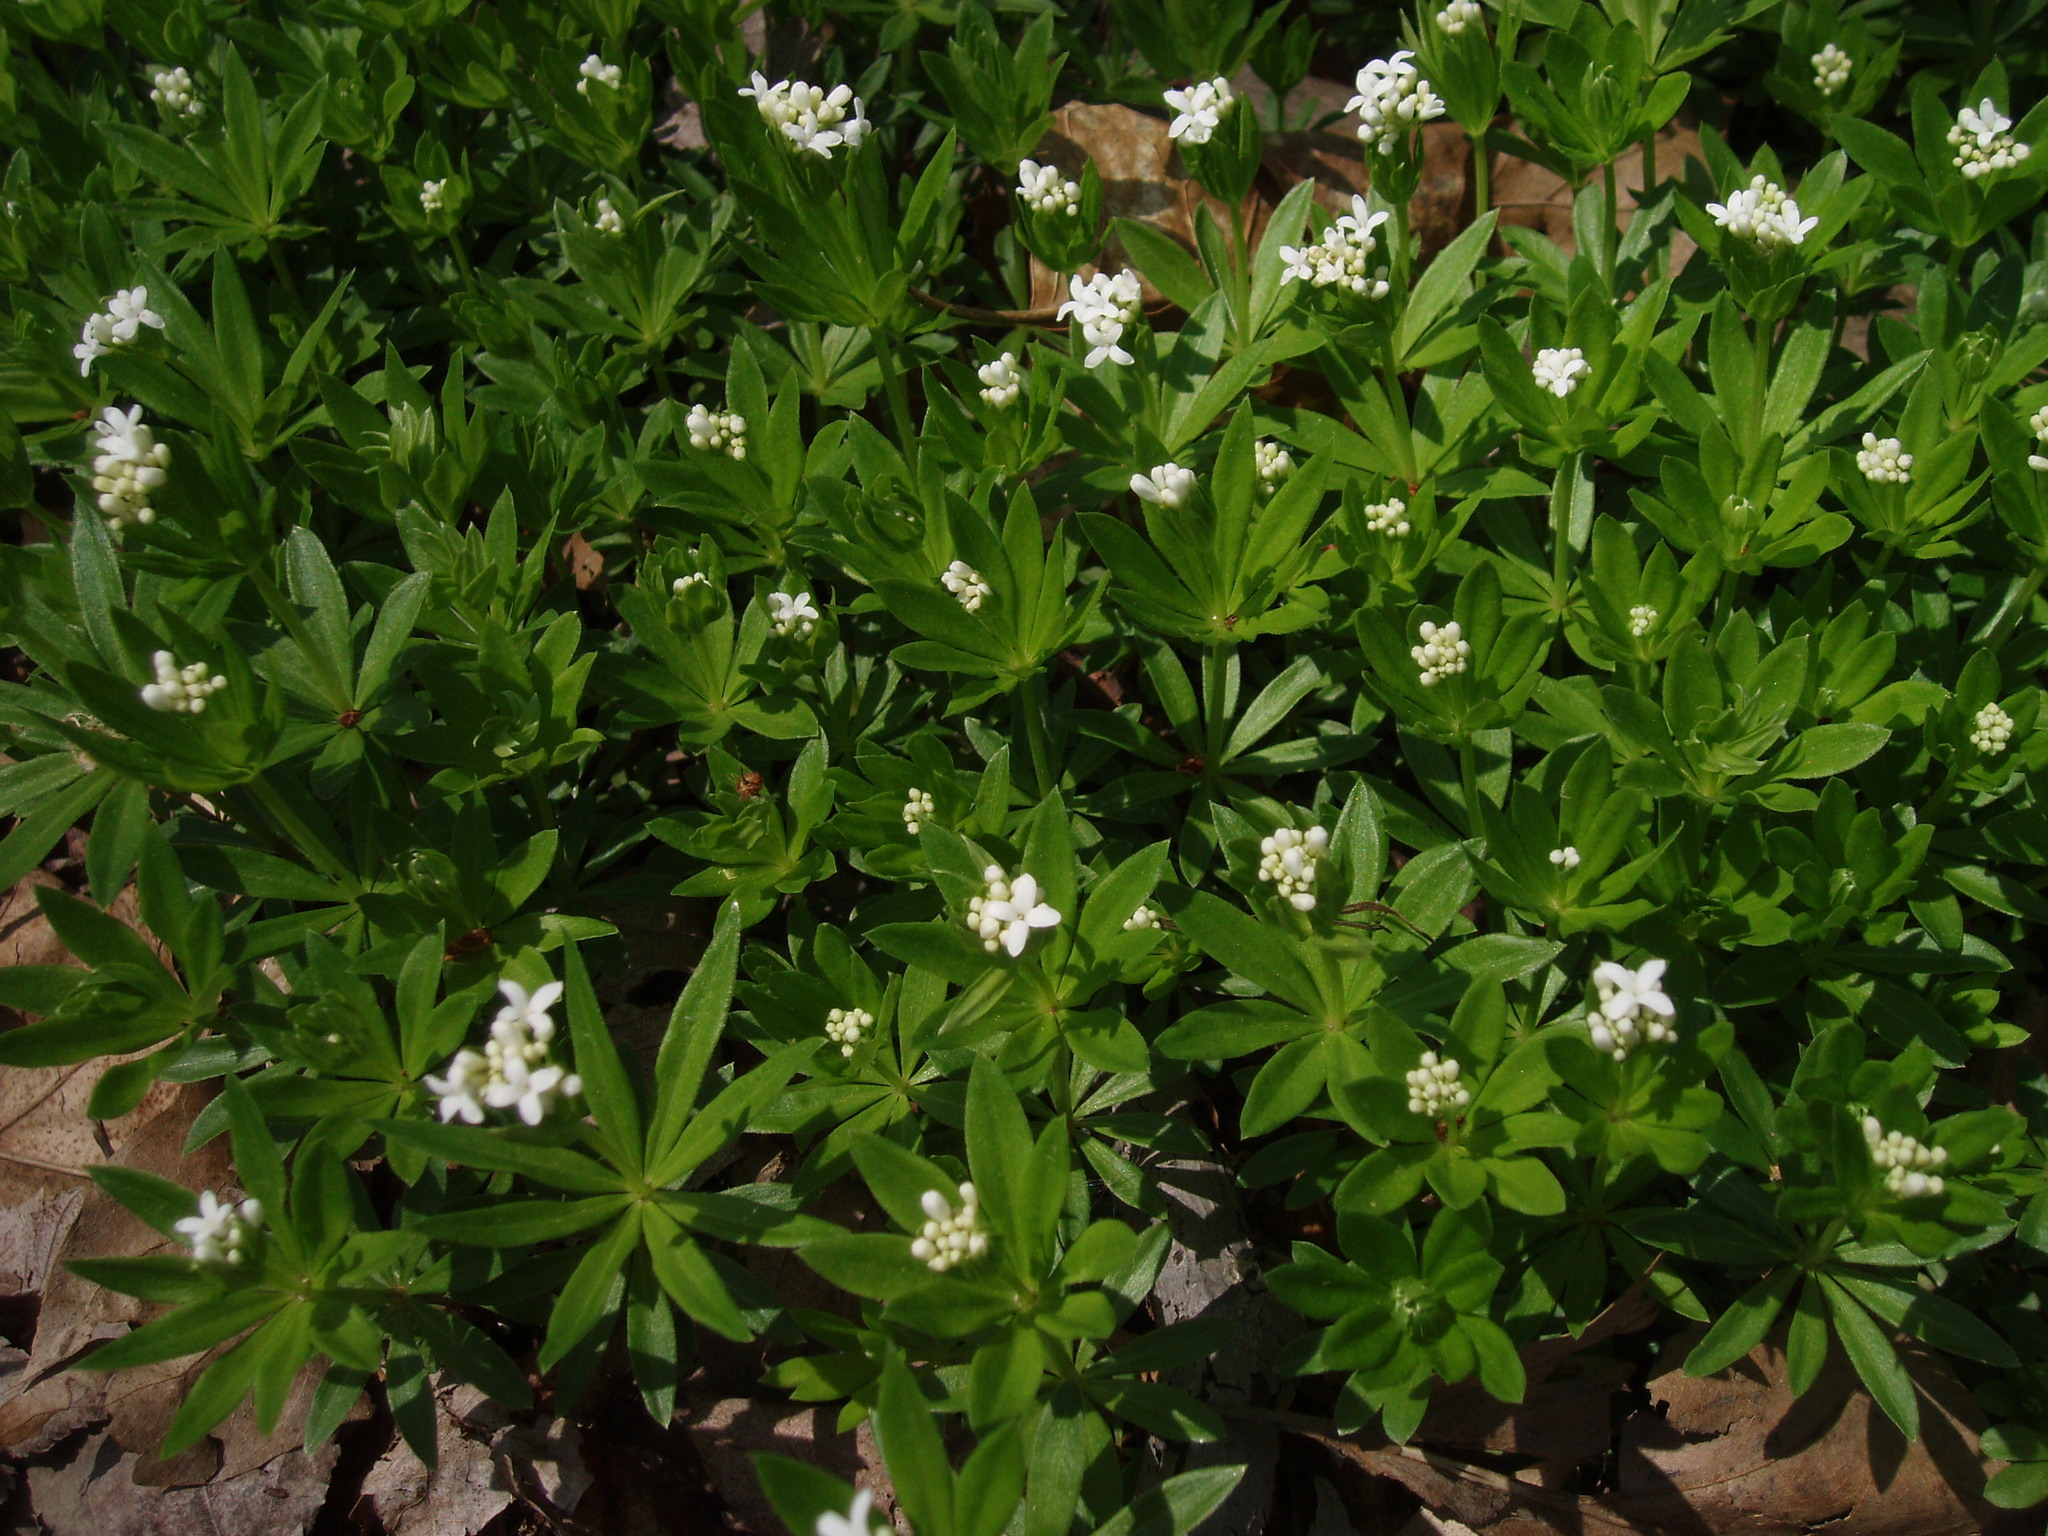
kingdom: Plantae
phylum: Tracheophyta
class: Magnoliopsida
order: Gentianales
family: Rubiaceae
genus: Galium
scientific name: Galium odoratum
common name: Sweet woodruff
